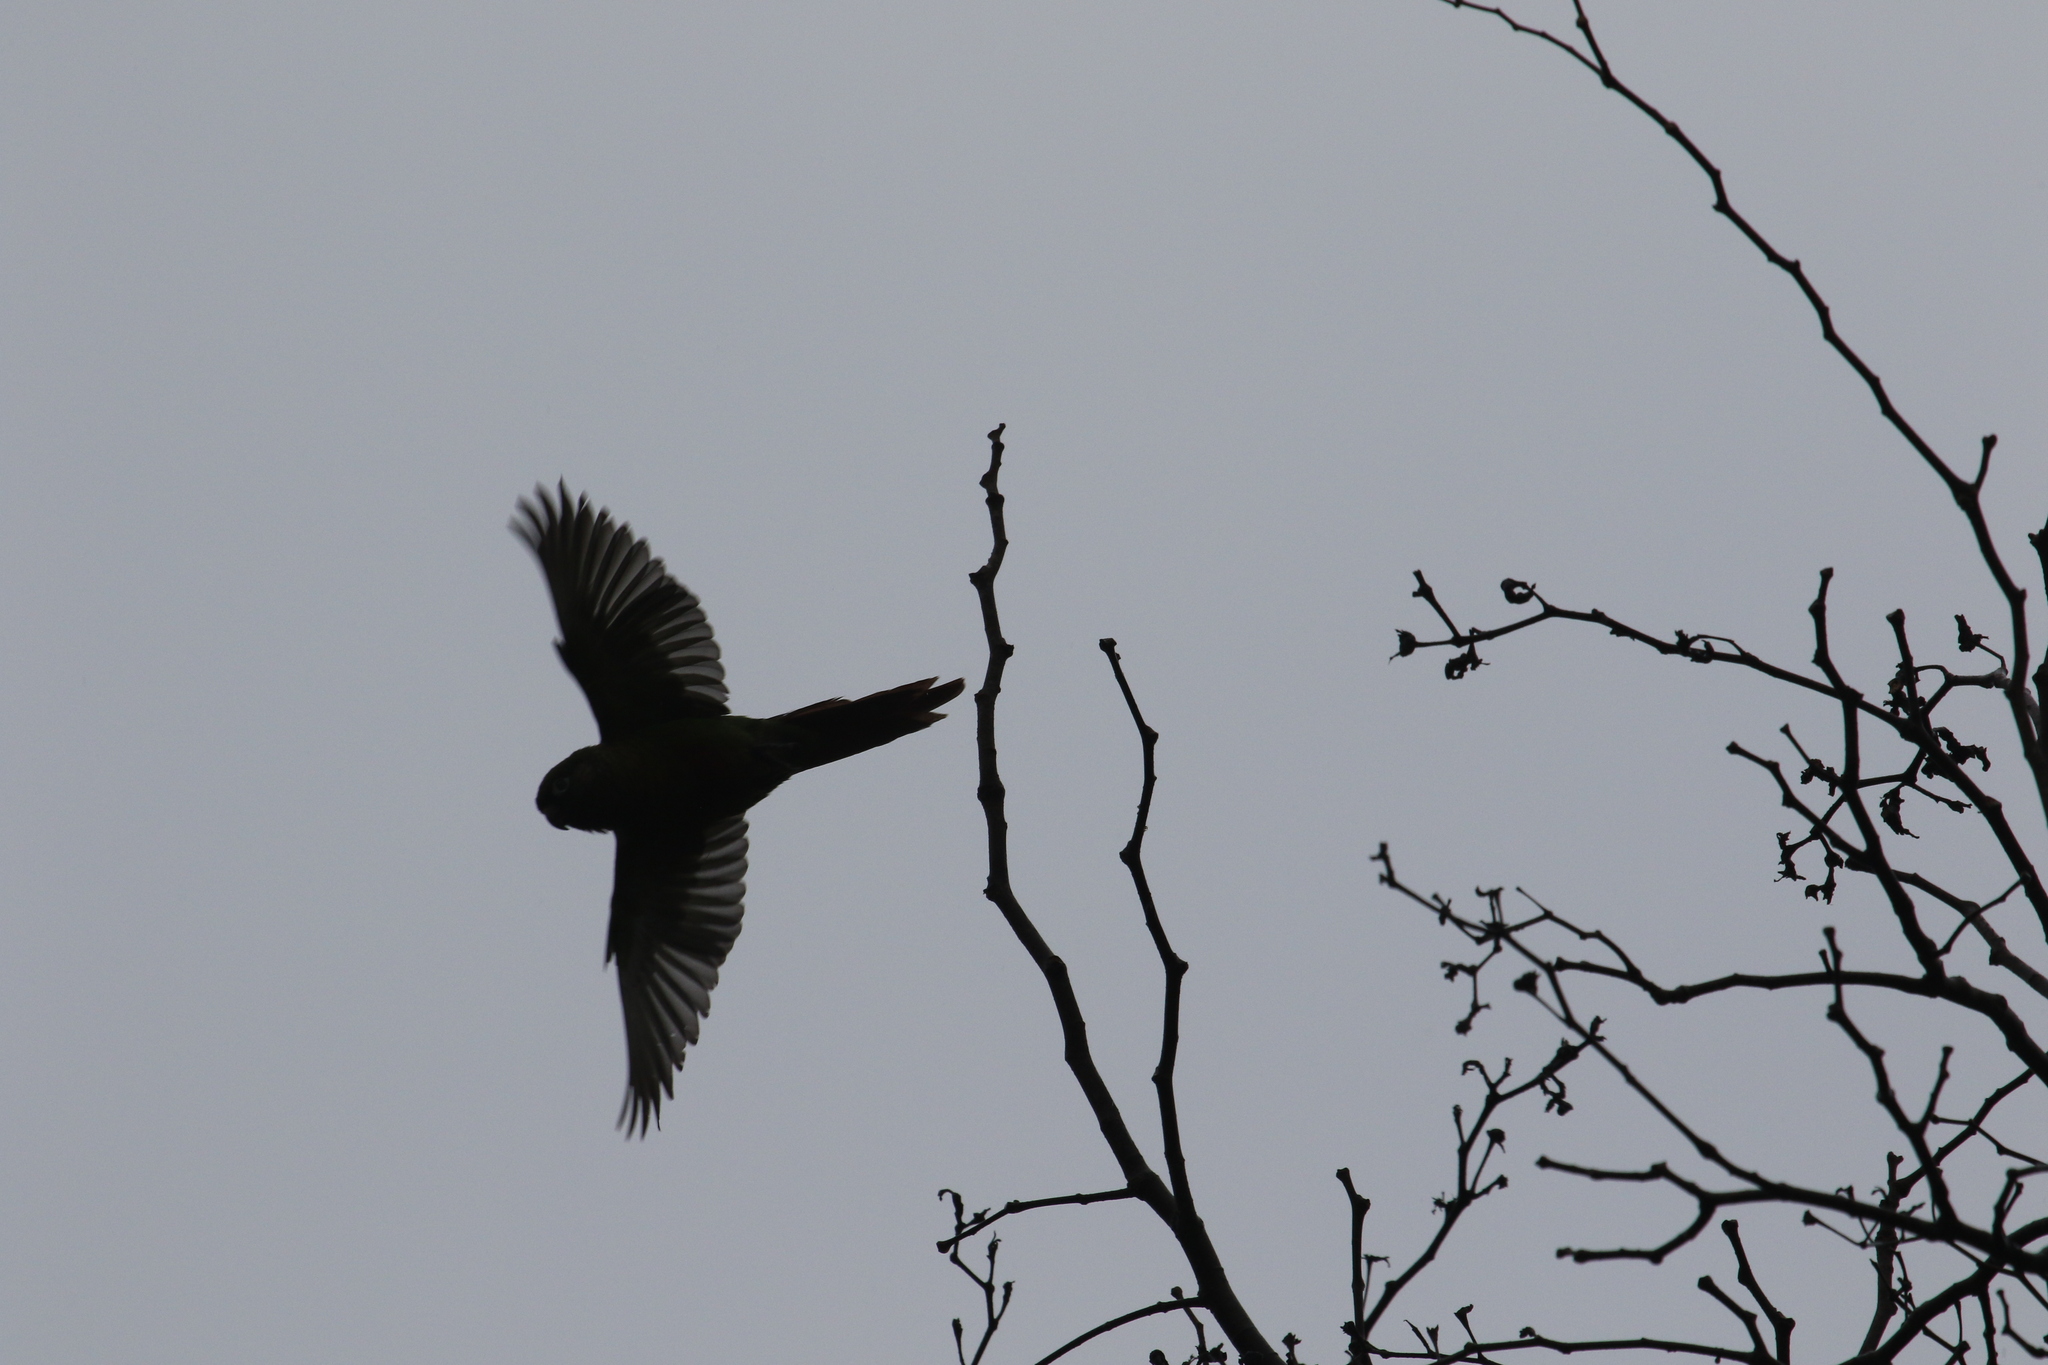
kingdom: Animalia
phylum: Chordata
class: Aves
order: Psittaciformes
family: Psittacidae
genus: Pyrrhura
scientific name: Pyrrhura frontalis
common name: Maroon-bellied parakeet
